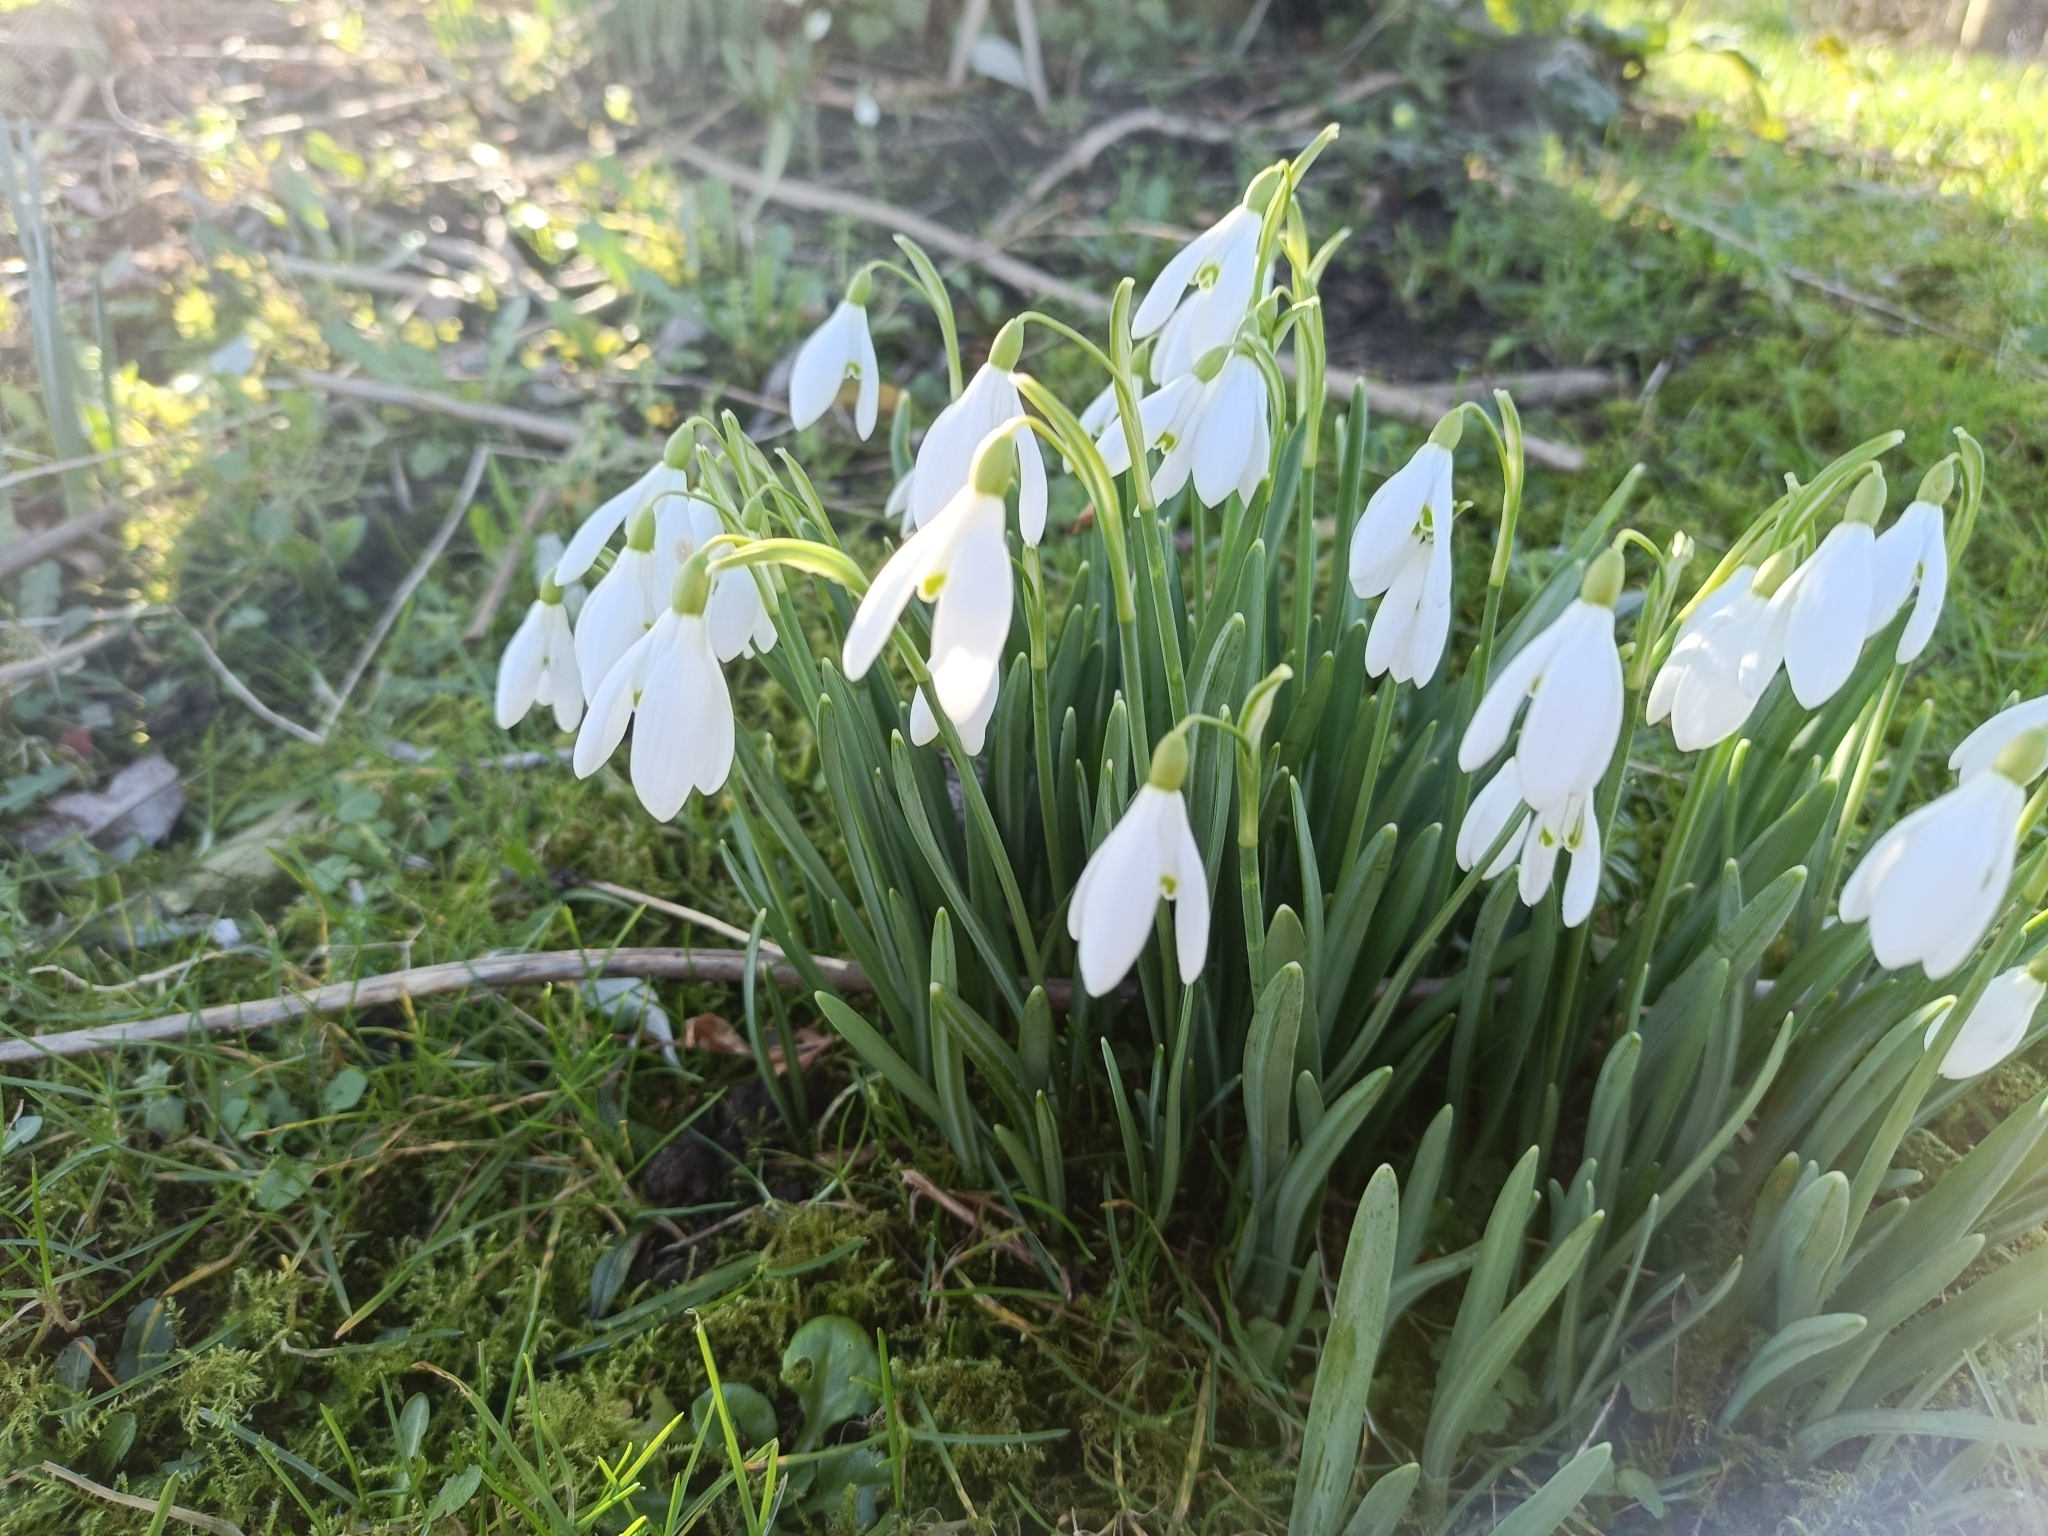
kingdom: Plantae
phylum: Tracheophyta
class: Liliopsida
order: Asparagales
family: Amaryllidaceae
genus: Galanthus
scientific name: Galanthus nivalis
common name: Snowdrop
